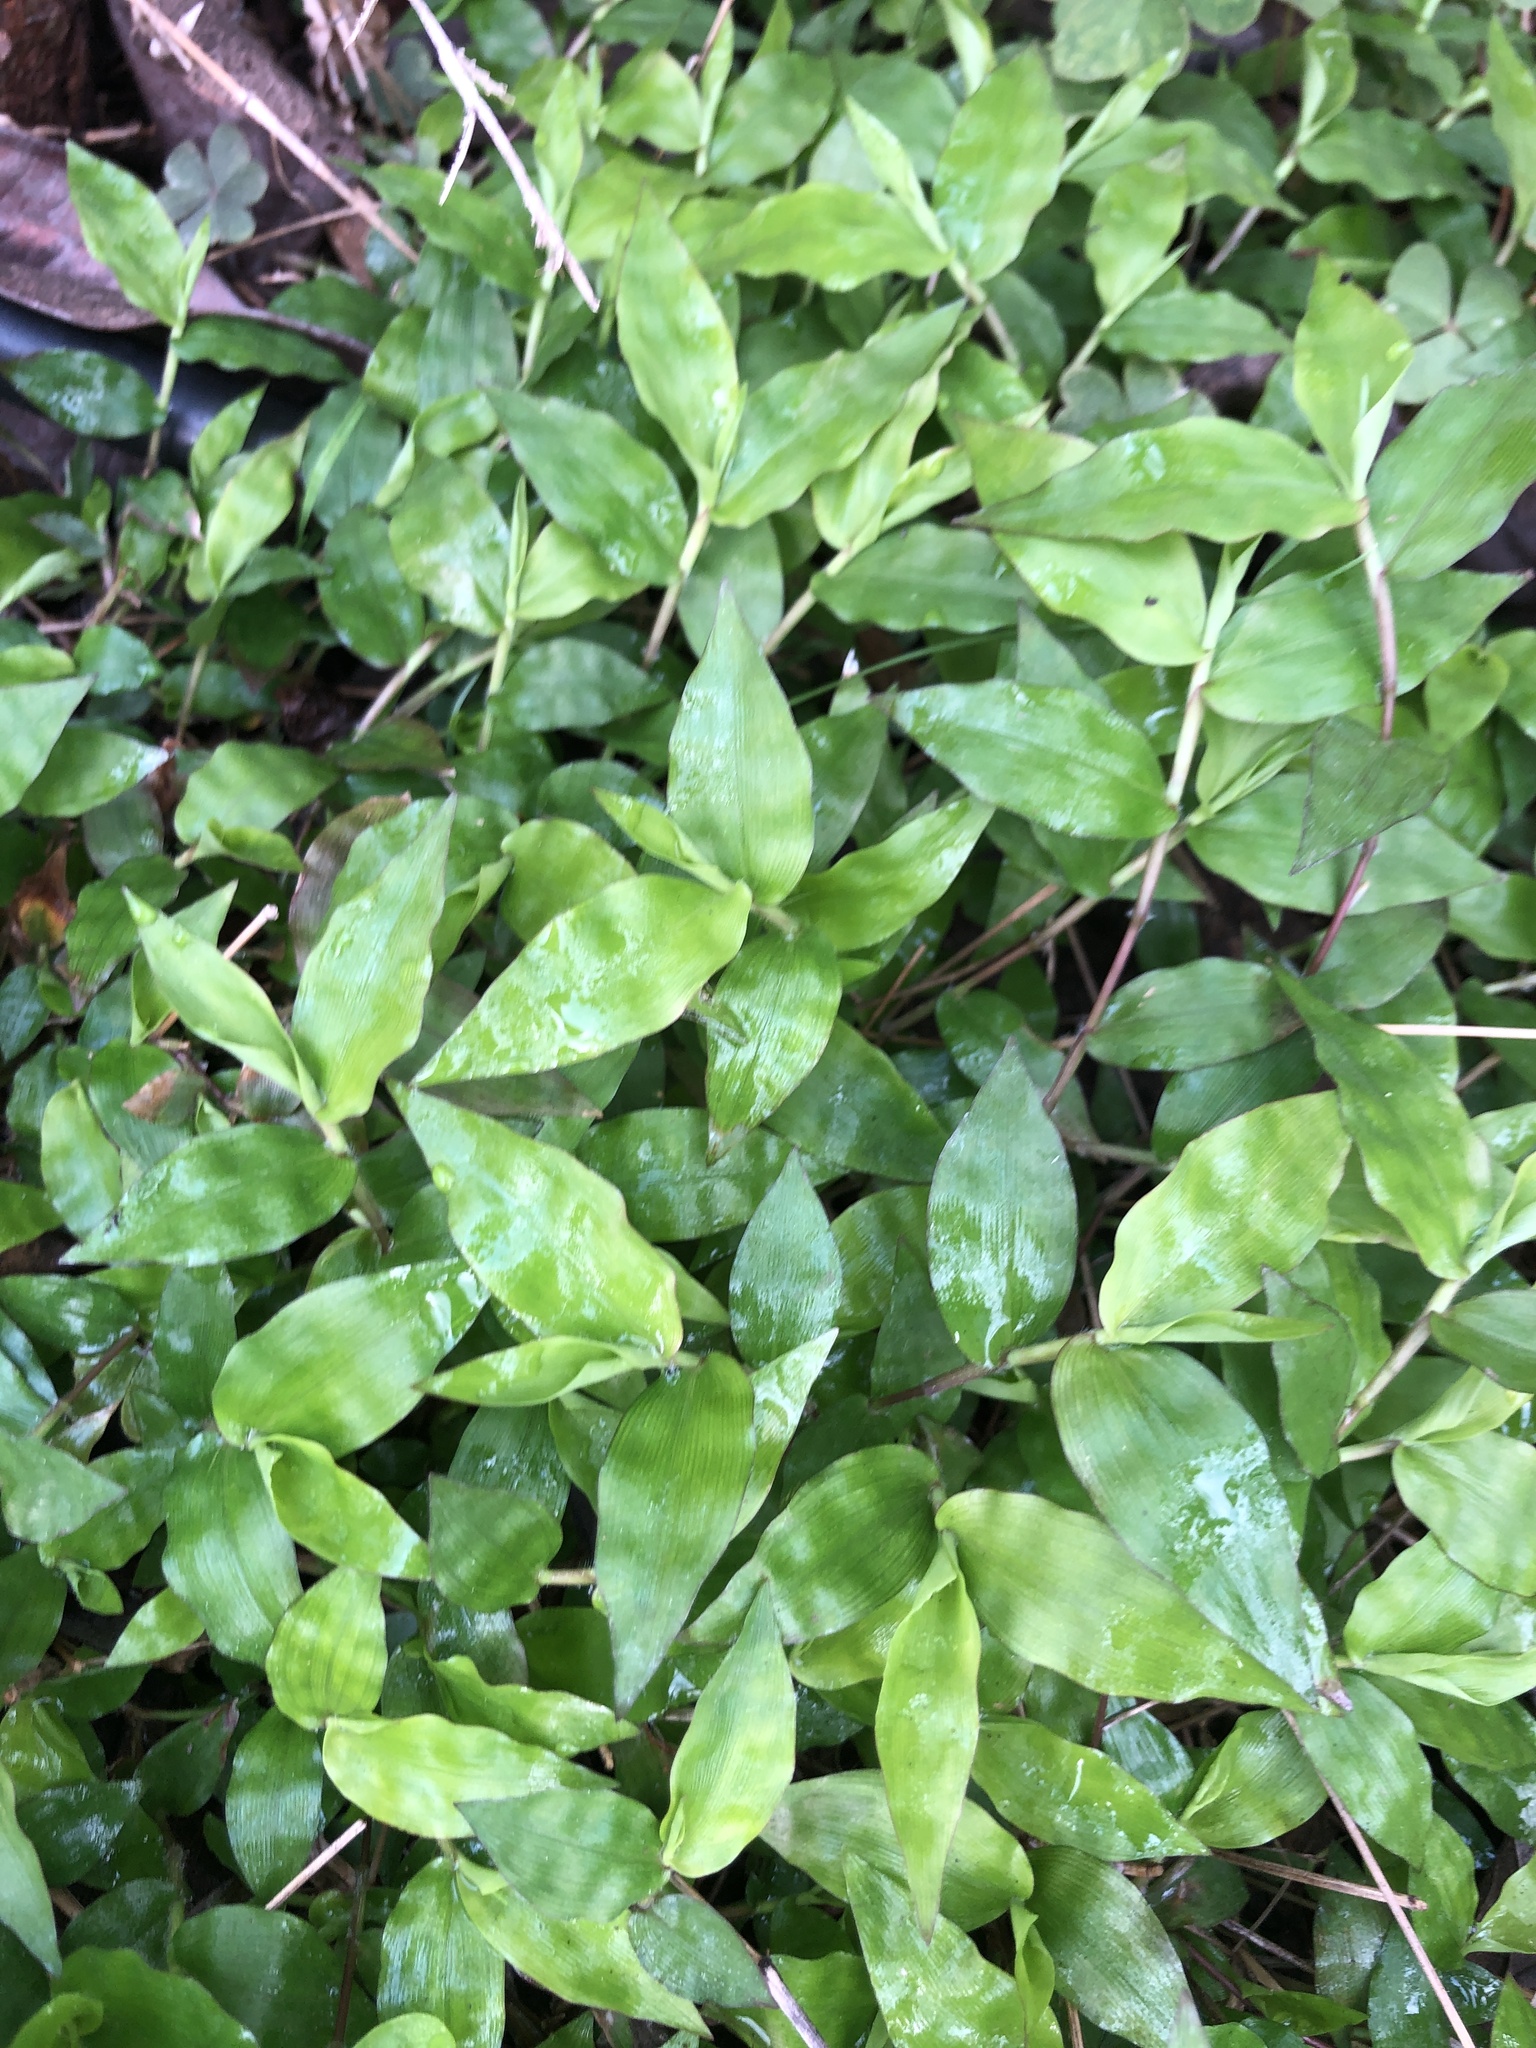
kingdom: Plantae
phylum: Tracheophyta
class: Liliopsida
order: Poales
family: Poaceae
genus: Oplismenus
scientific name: Oplismenus hirtellus
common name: Basketgrass
